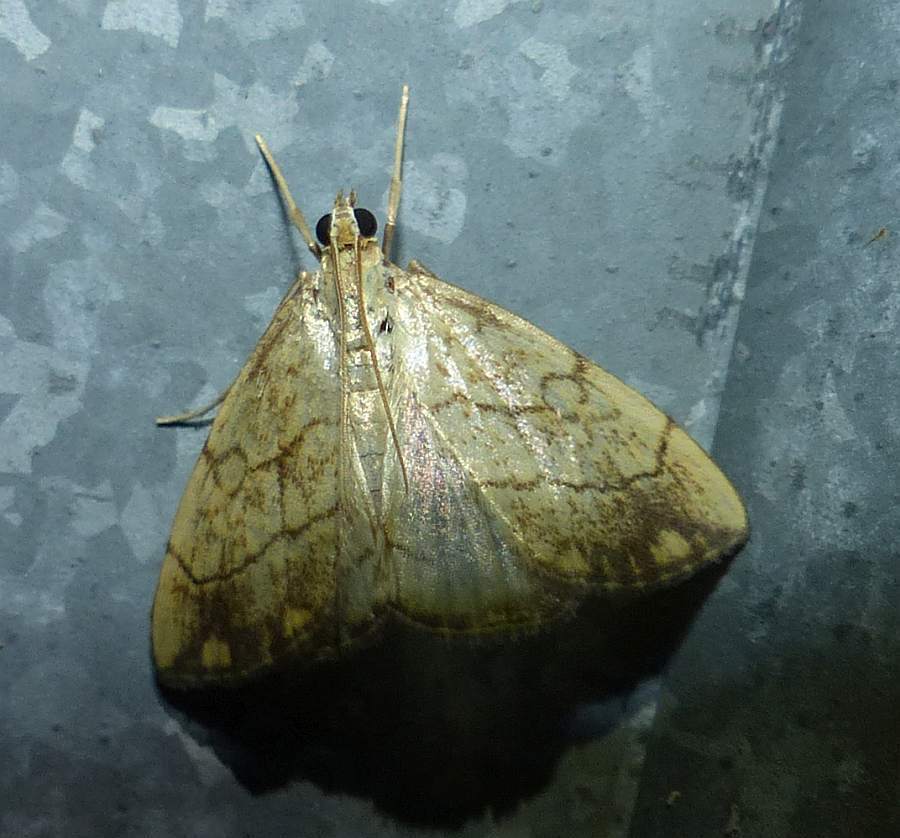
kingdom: Animalia
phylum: Arthropoda
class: Insecta
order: Lepidoptera
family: Crambidae
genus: Evergestis
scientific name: Evergestis pallidata
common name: Chequered pearl
